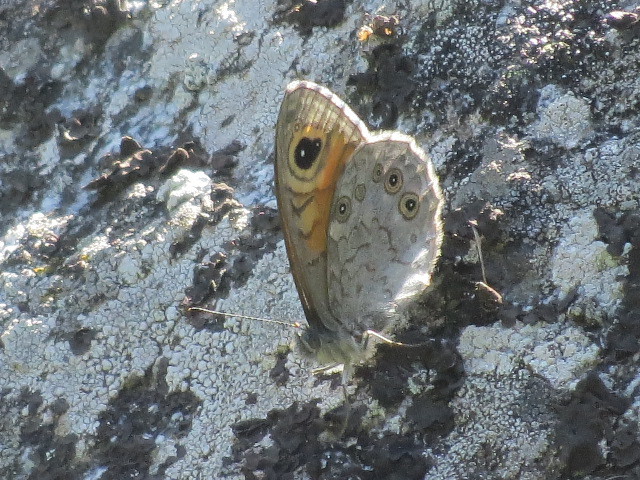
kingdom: Animalia
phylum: Arthropoda
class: Insecta
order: Lepidoptera
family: Nymphalidae
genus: Pararge
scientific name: Pararge Lasiommata maera
